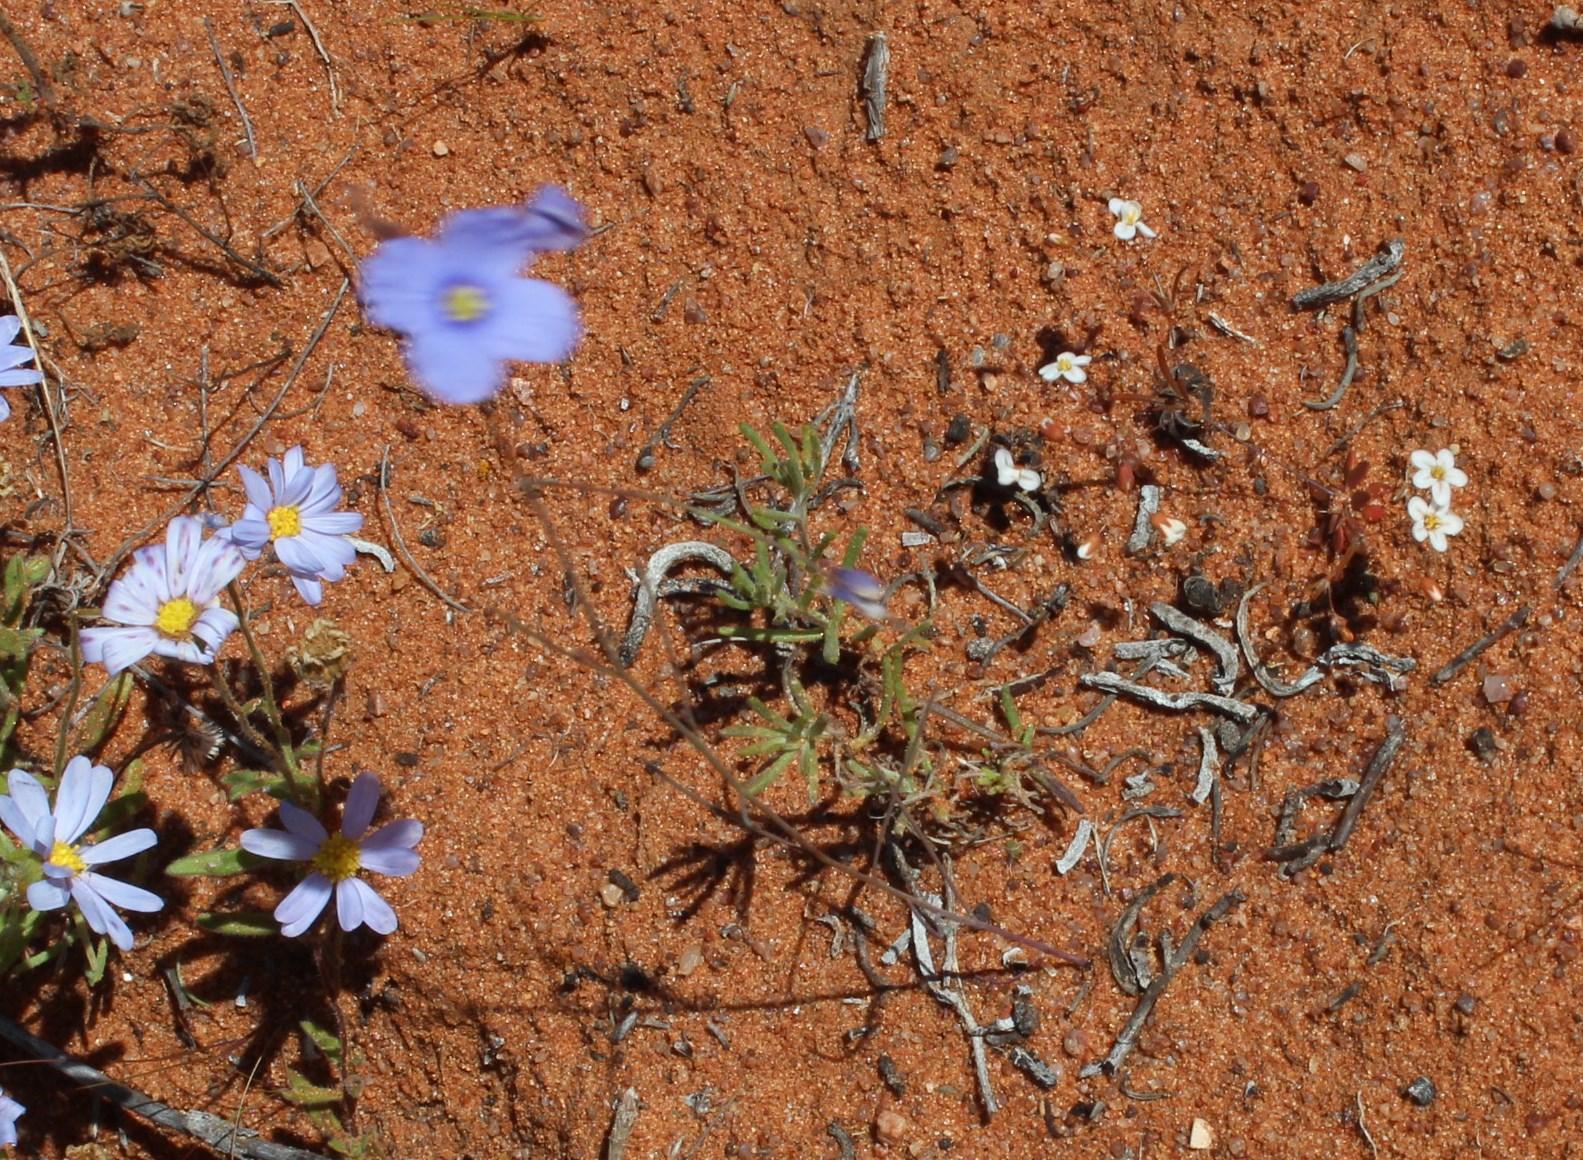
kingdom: Plantae
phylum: Tracheophyta
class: Magnoliopsida
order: Brassicales
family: Brassicaceae
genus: Heliophila
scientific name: Heliophila lactea
